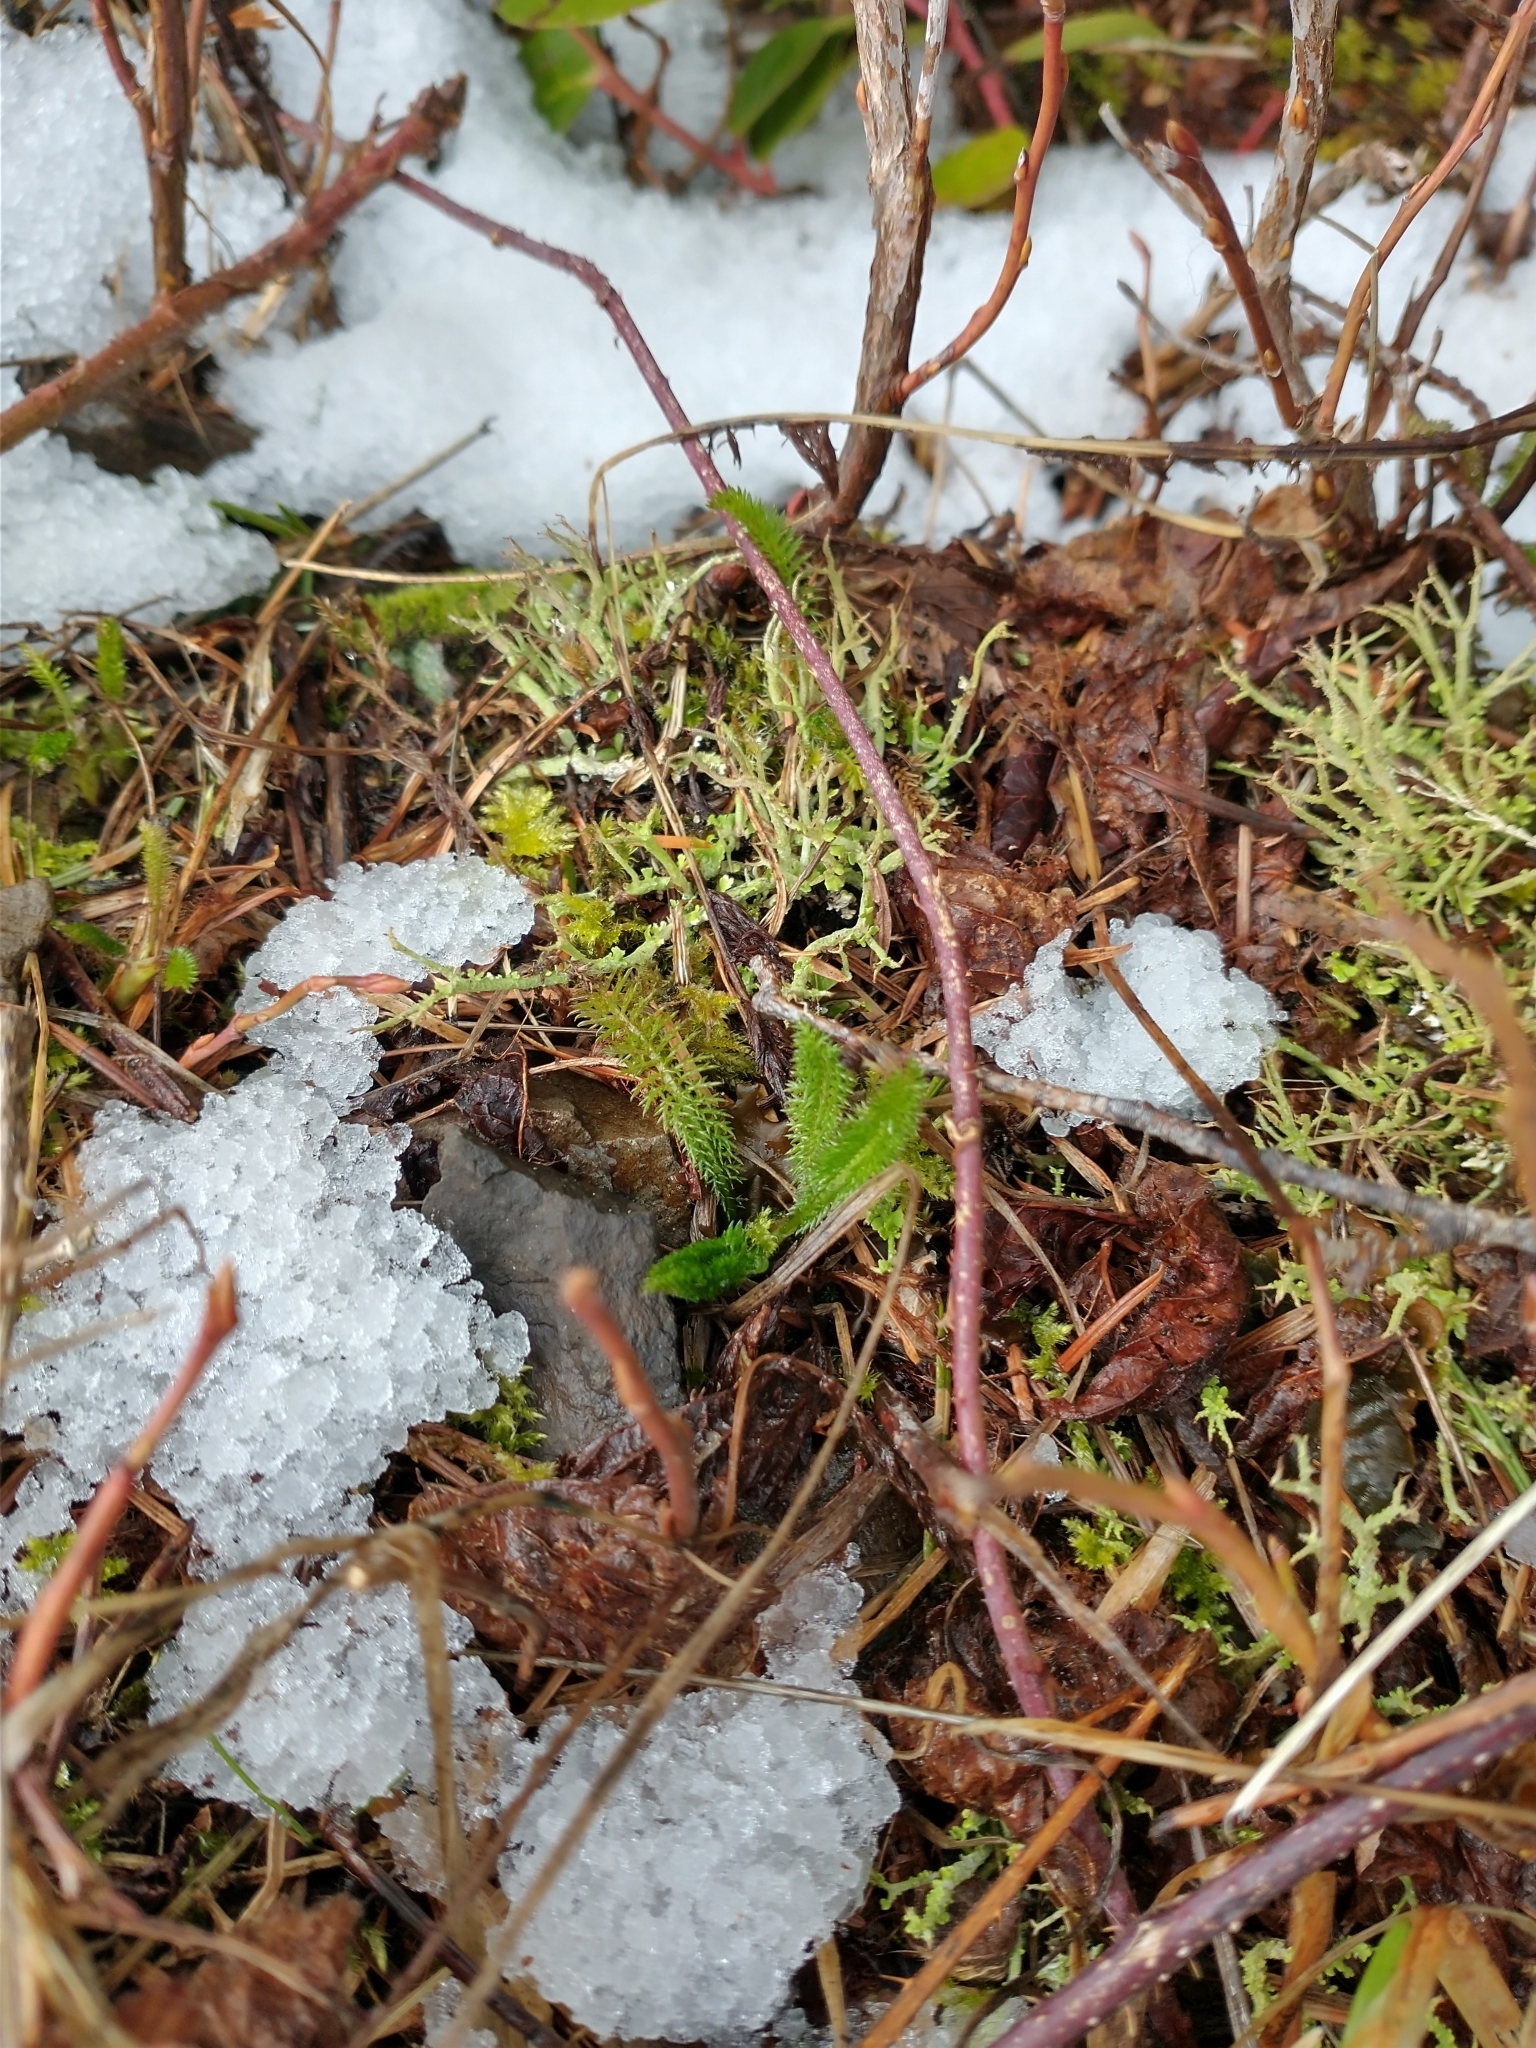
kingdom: Plantae
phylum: Tracheophyta
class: Magnoliopsida
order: Asterales
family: Asteraceae
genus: Achillea
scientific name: Achillea millefolium
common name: Yarrow
